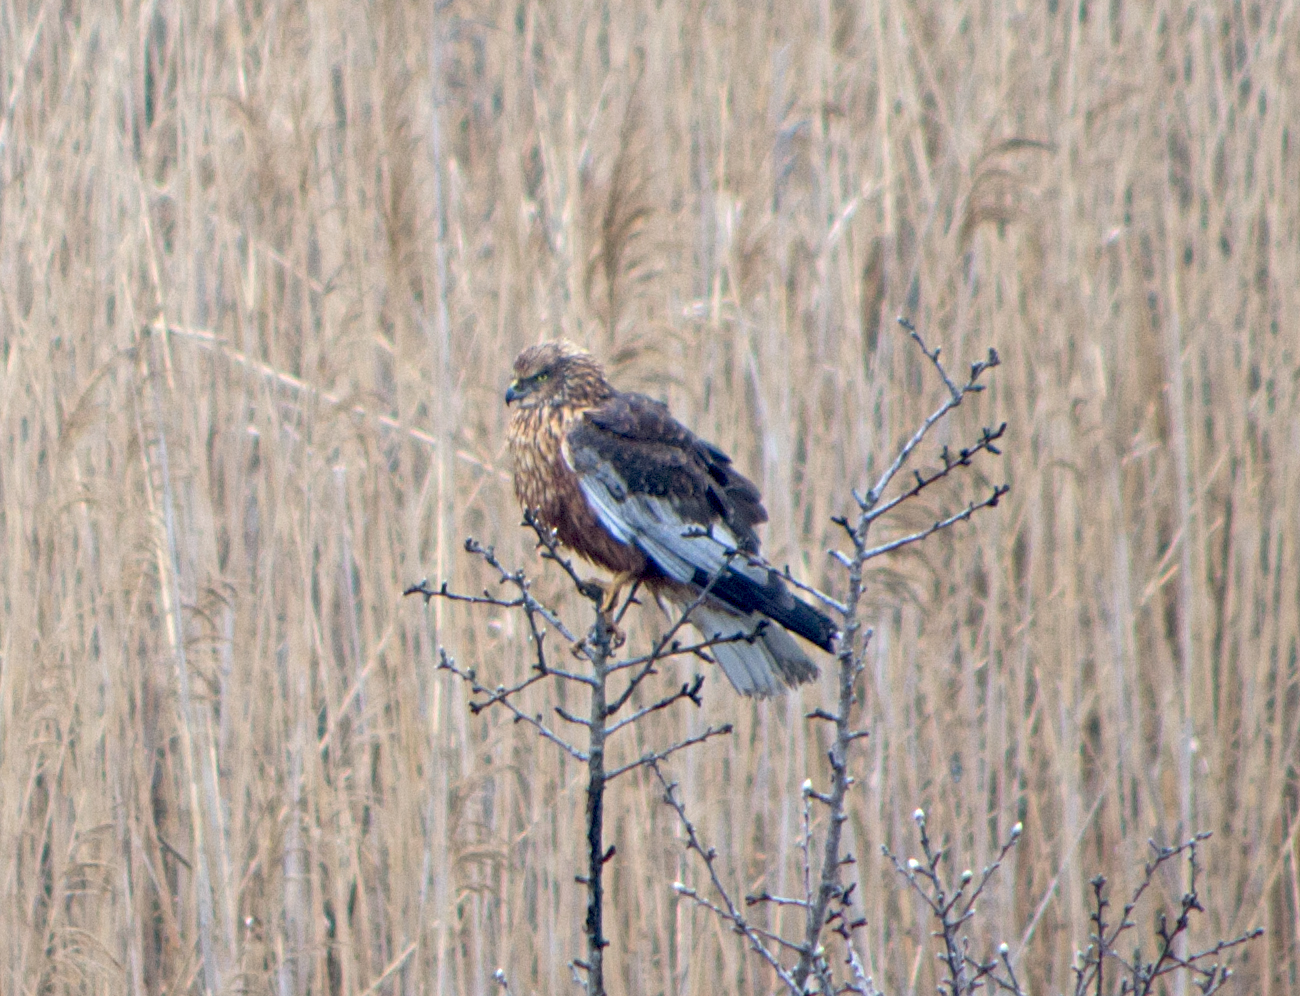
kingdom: Animalia
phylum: Chordata
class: Aves
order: Accipitriformes
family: Accipitridae
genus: Circus
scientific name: Circus aeruginosus
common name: Western marsh harrier
